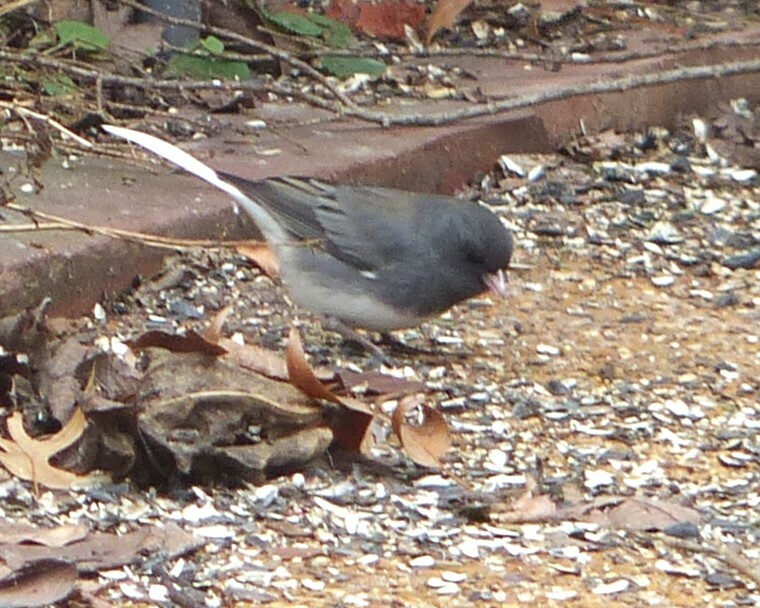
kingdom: Animalia
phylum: Chordata
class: Aves
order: Passeriformes
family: Passerellidae
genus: Junco
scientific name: Junco hyemalis
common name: Dark-eyed junco
